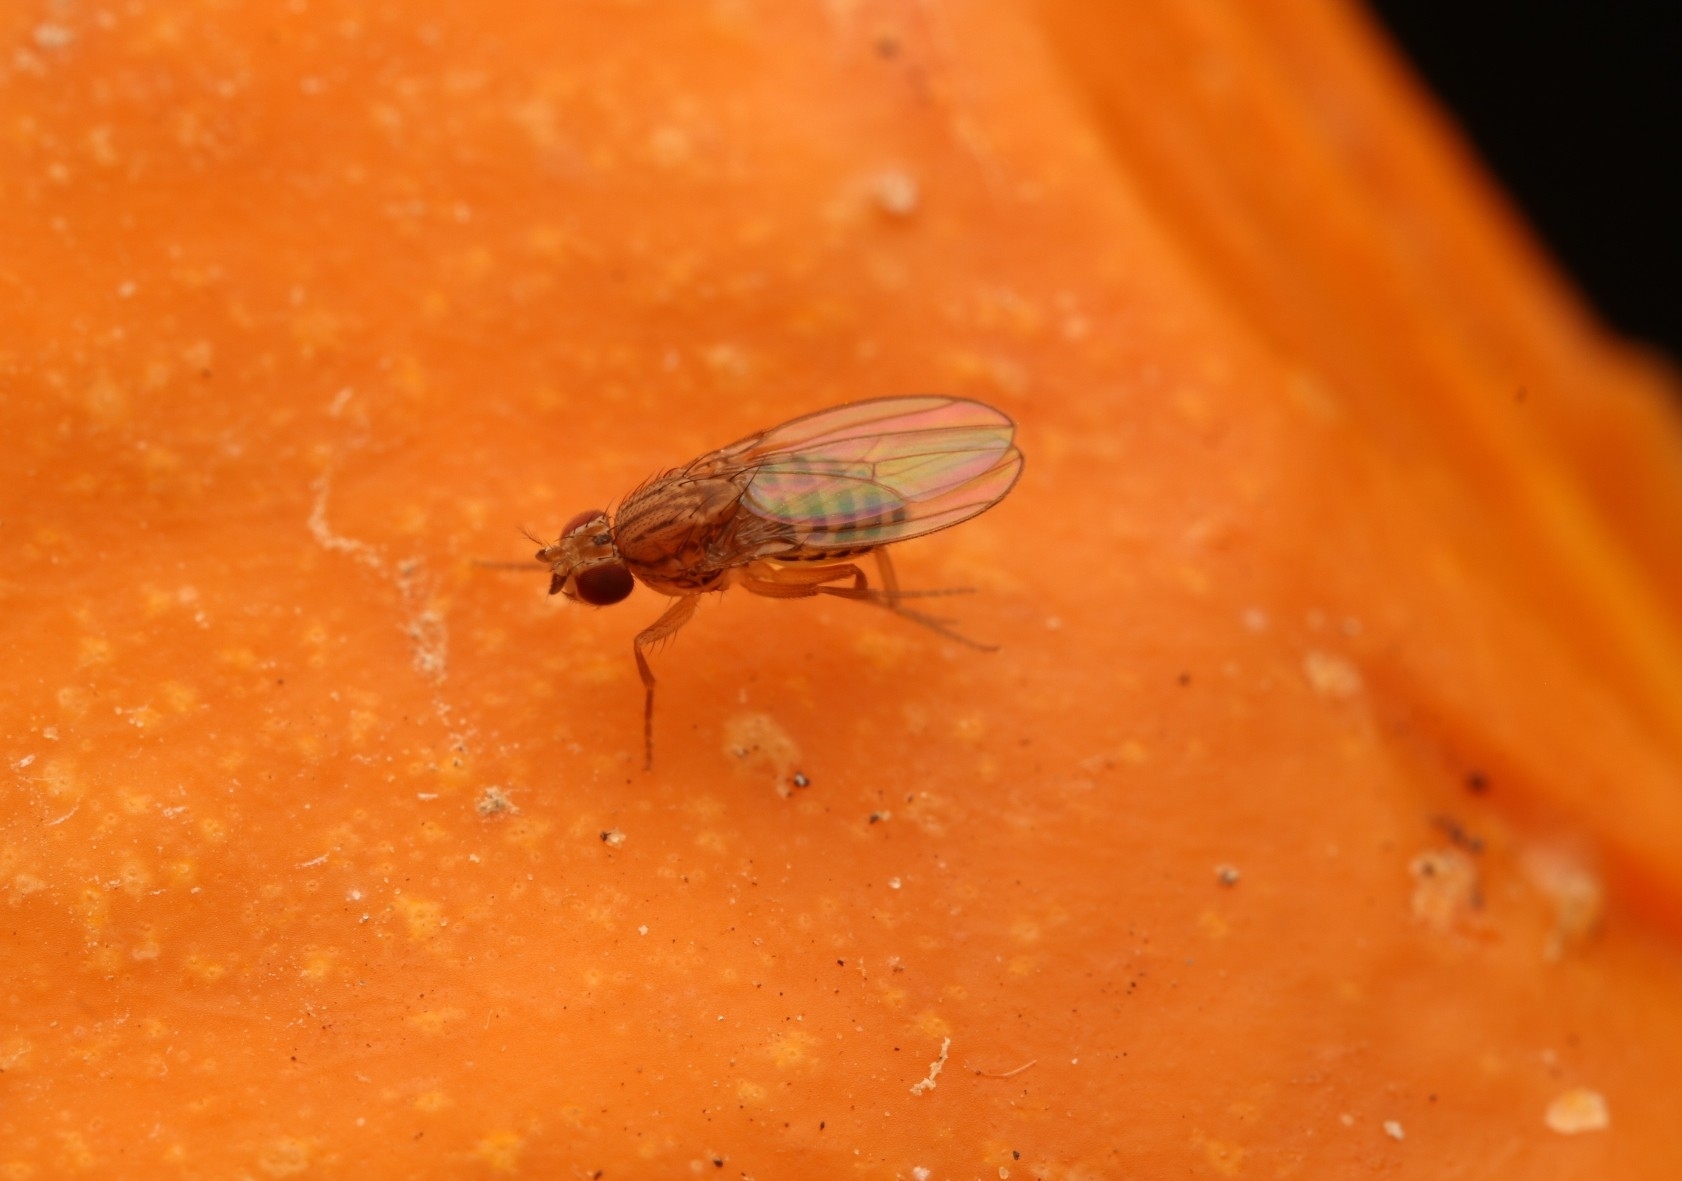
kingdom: Animalia
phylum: Arthropoda
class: Insecta
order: Diptera
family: Drosophilidae
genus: Drosophila
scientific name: Drosophila busckii
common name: Pomace fly
